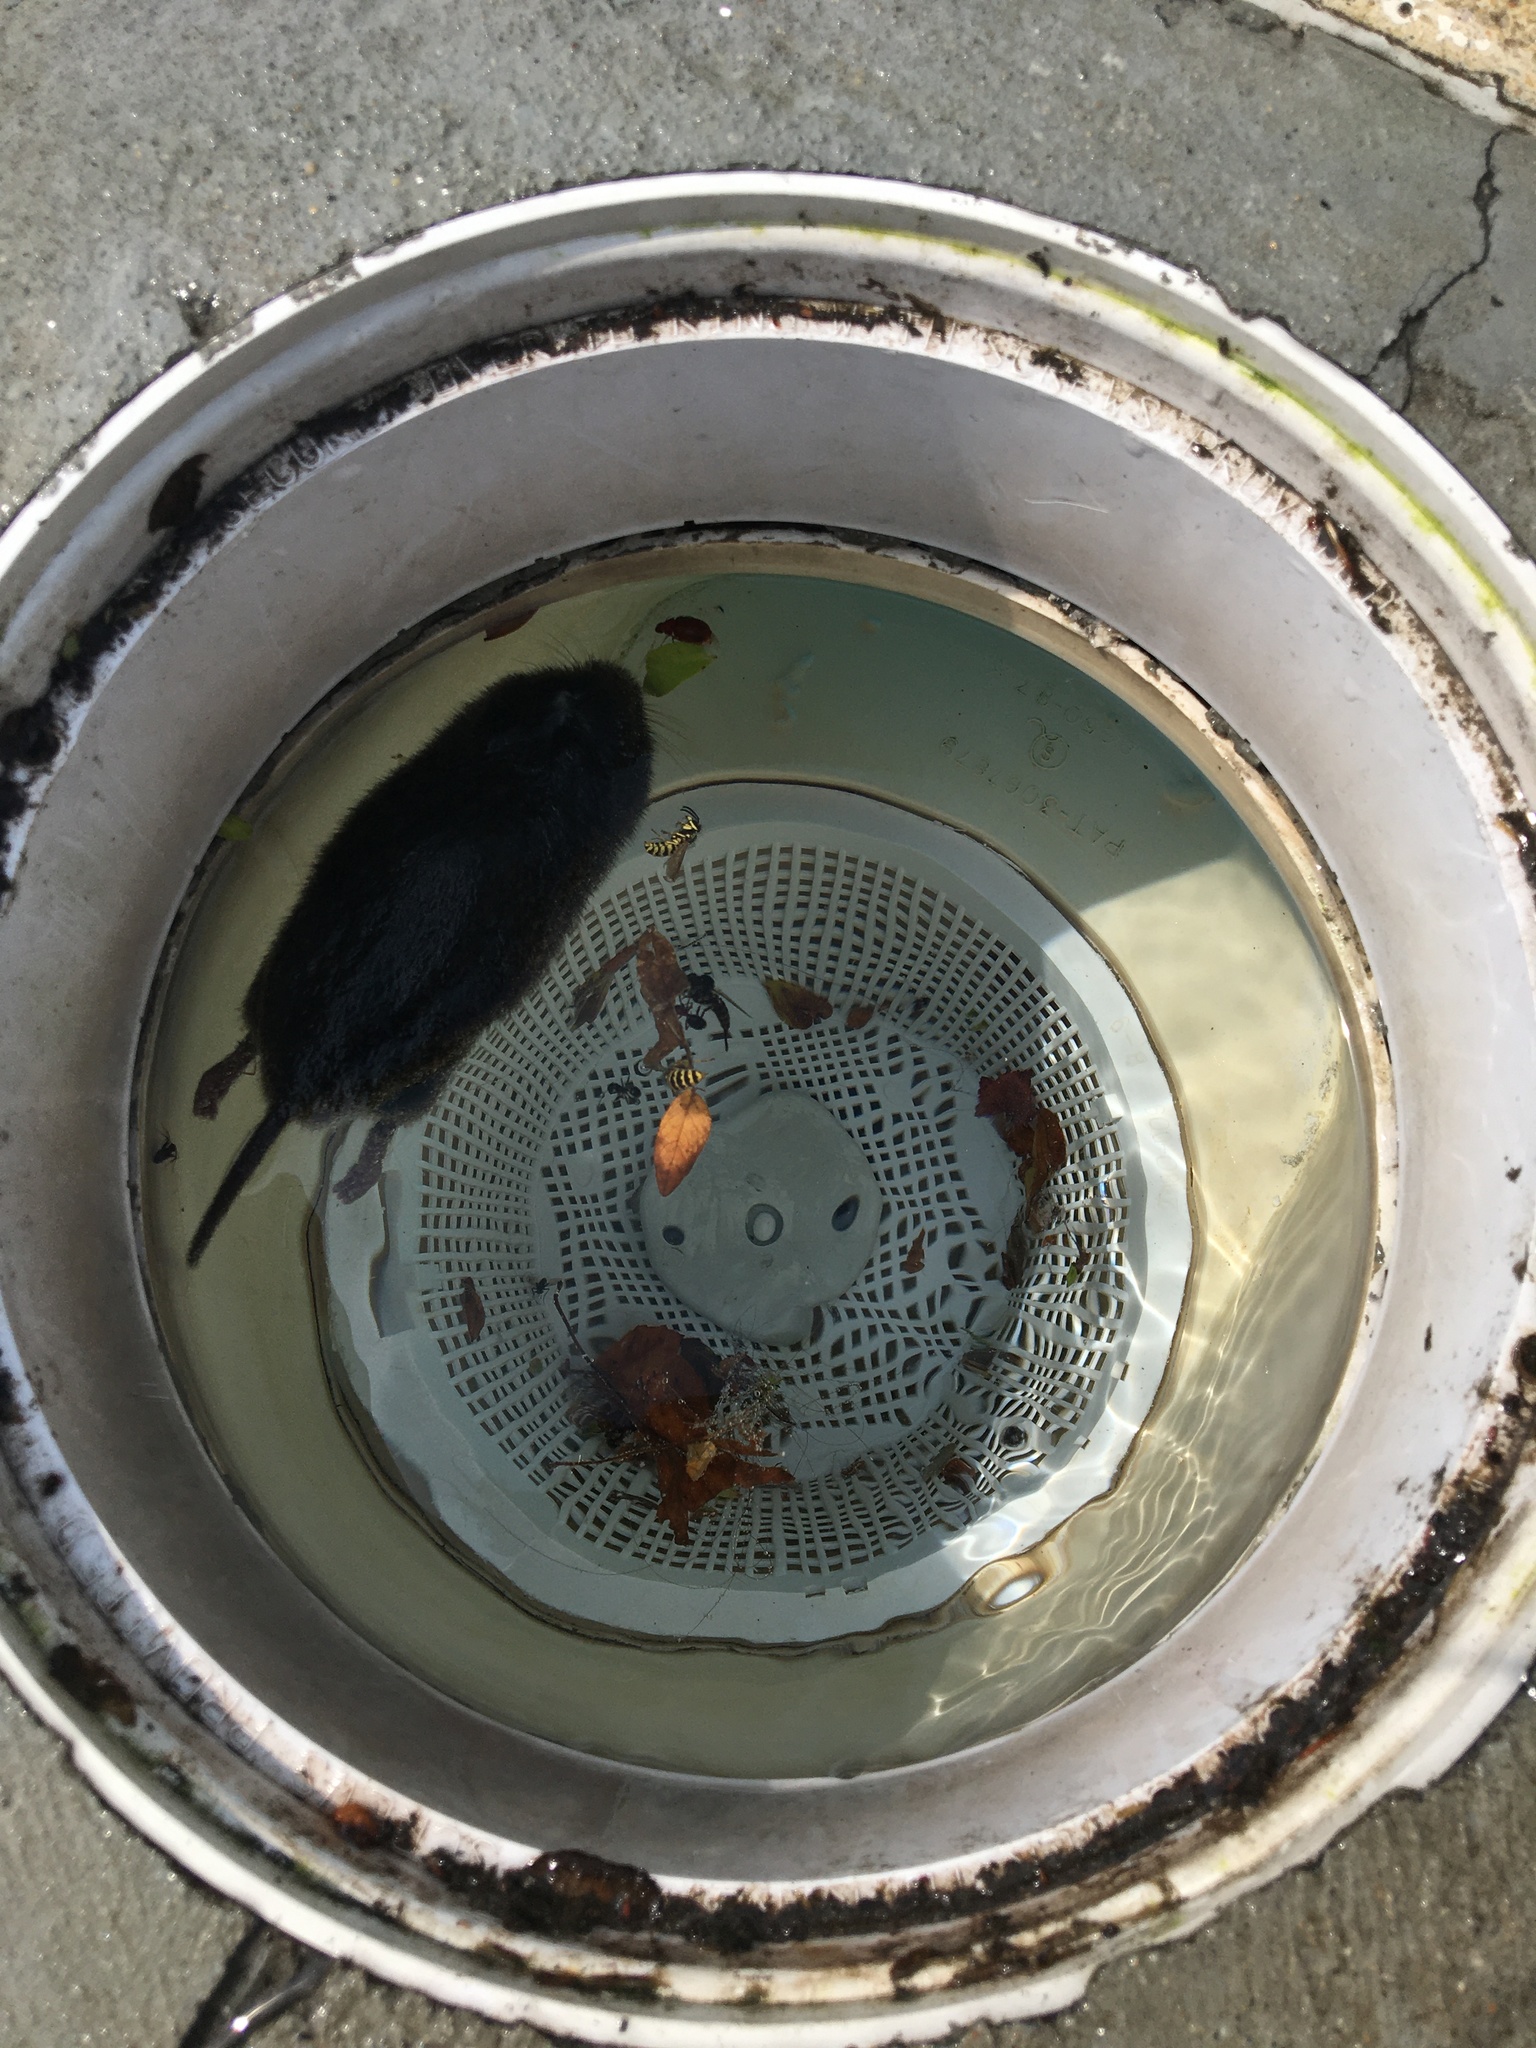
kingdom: Animalia
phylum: Chordata
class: Mammalia
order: Soricomorpha
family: Soricidae
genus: Blarina
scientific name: Blarina brevicauda
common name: Northern short-tailed shrew
